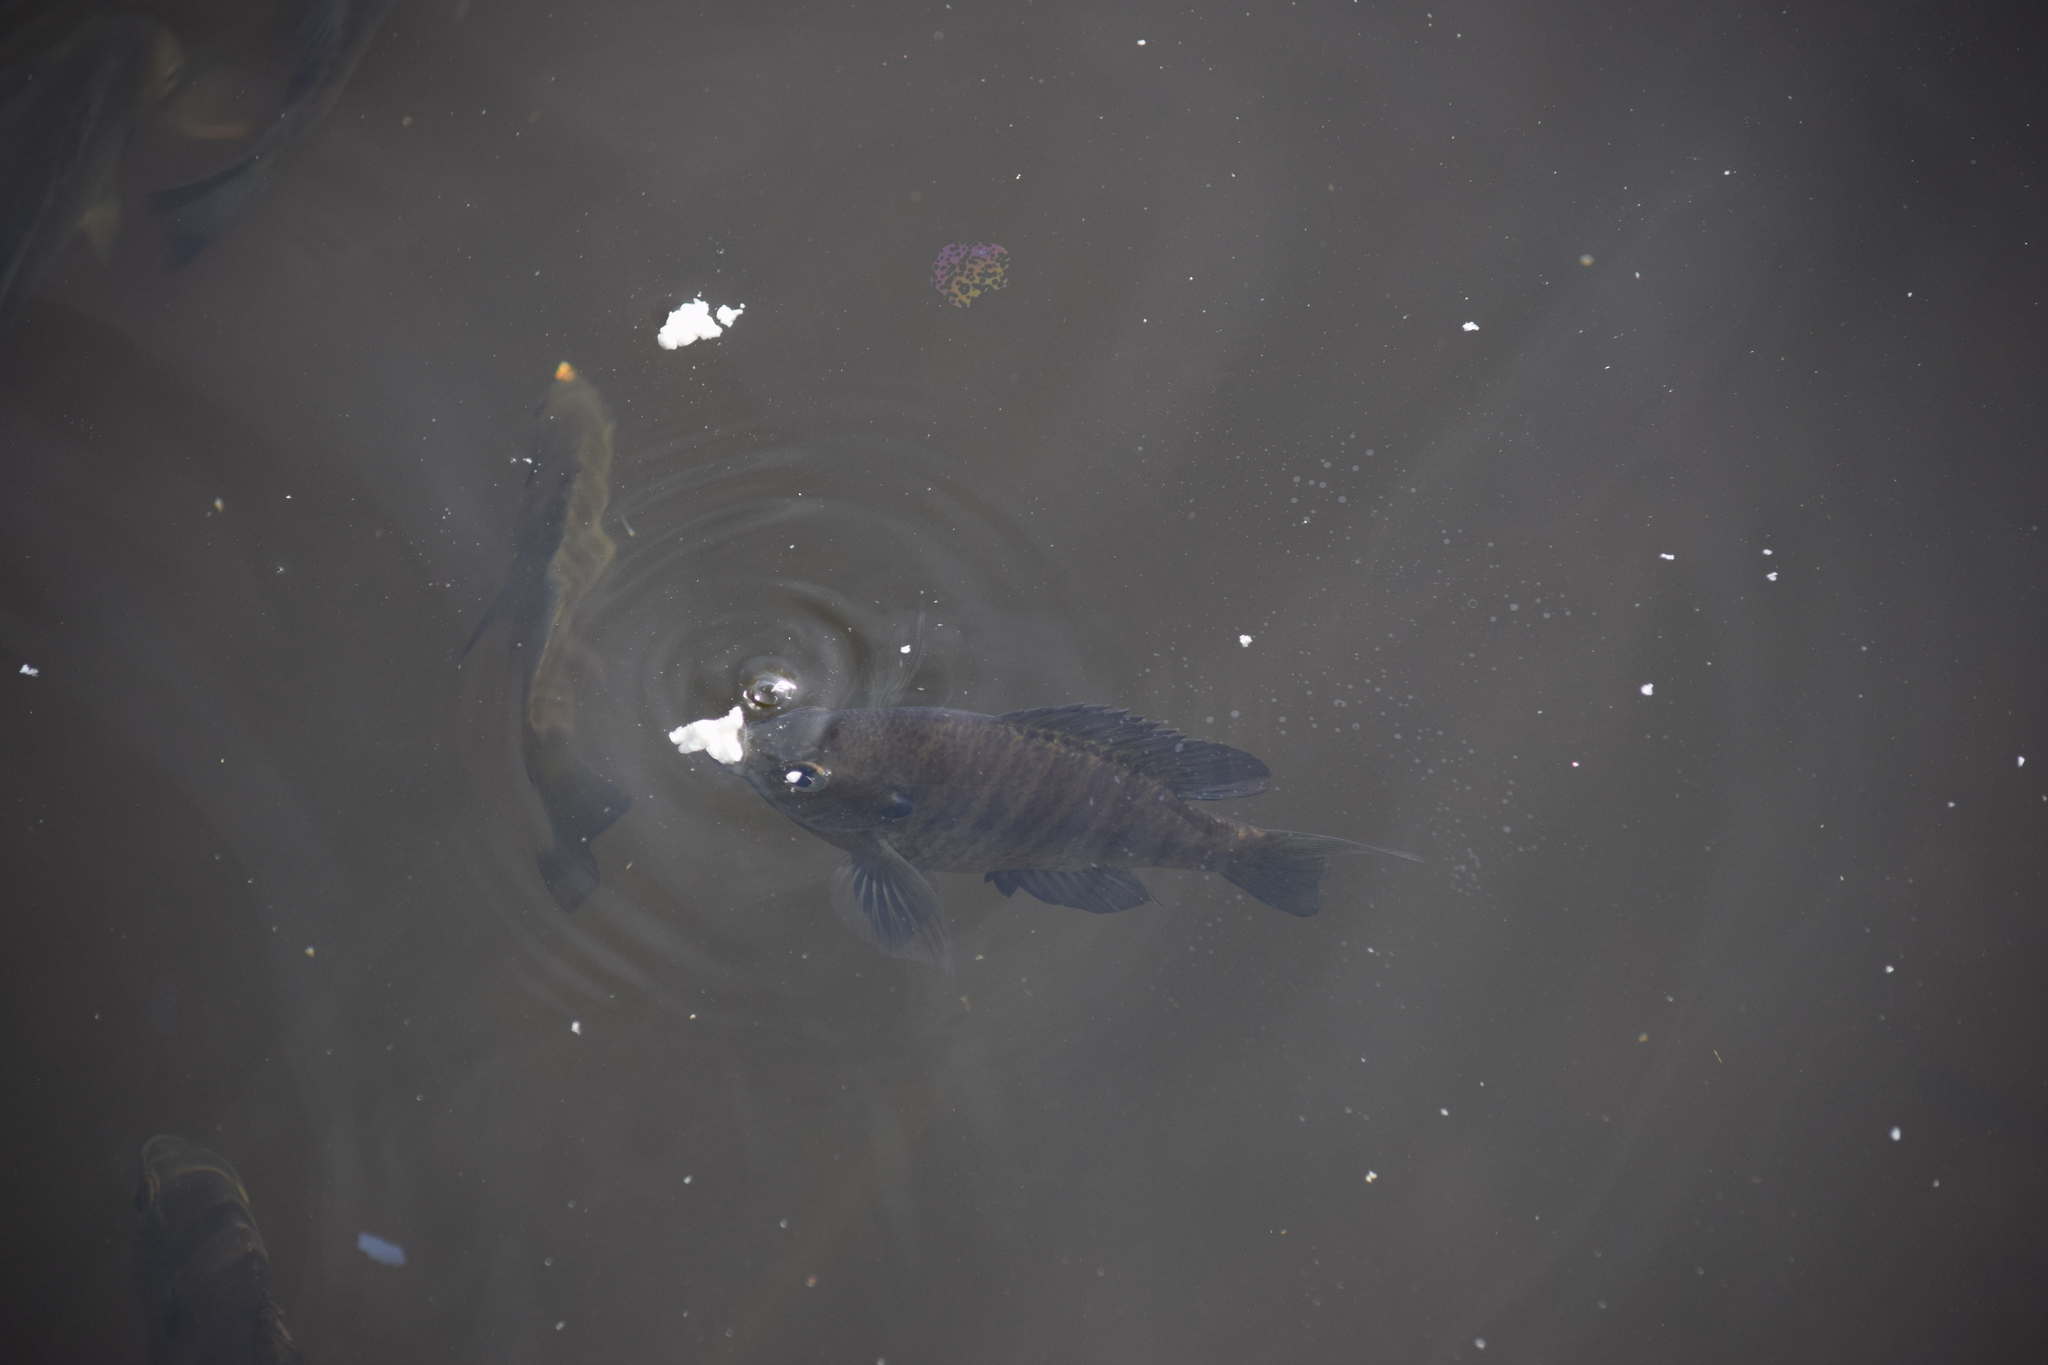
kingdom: Animalia
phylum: Chordata
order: Perciformes
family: Centrarchidae
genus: Lepomis
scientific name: Lepomis macrochirus
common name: Bluegill
